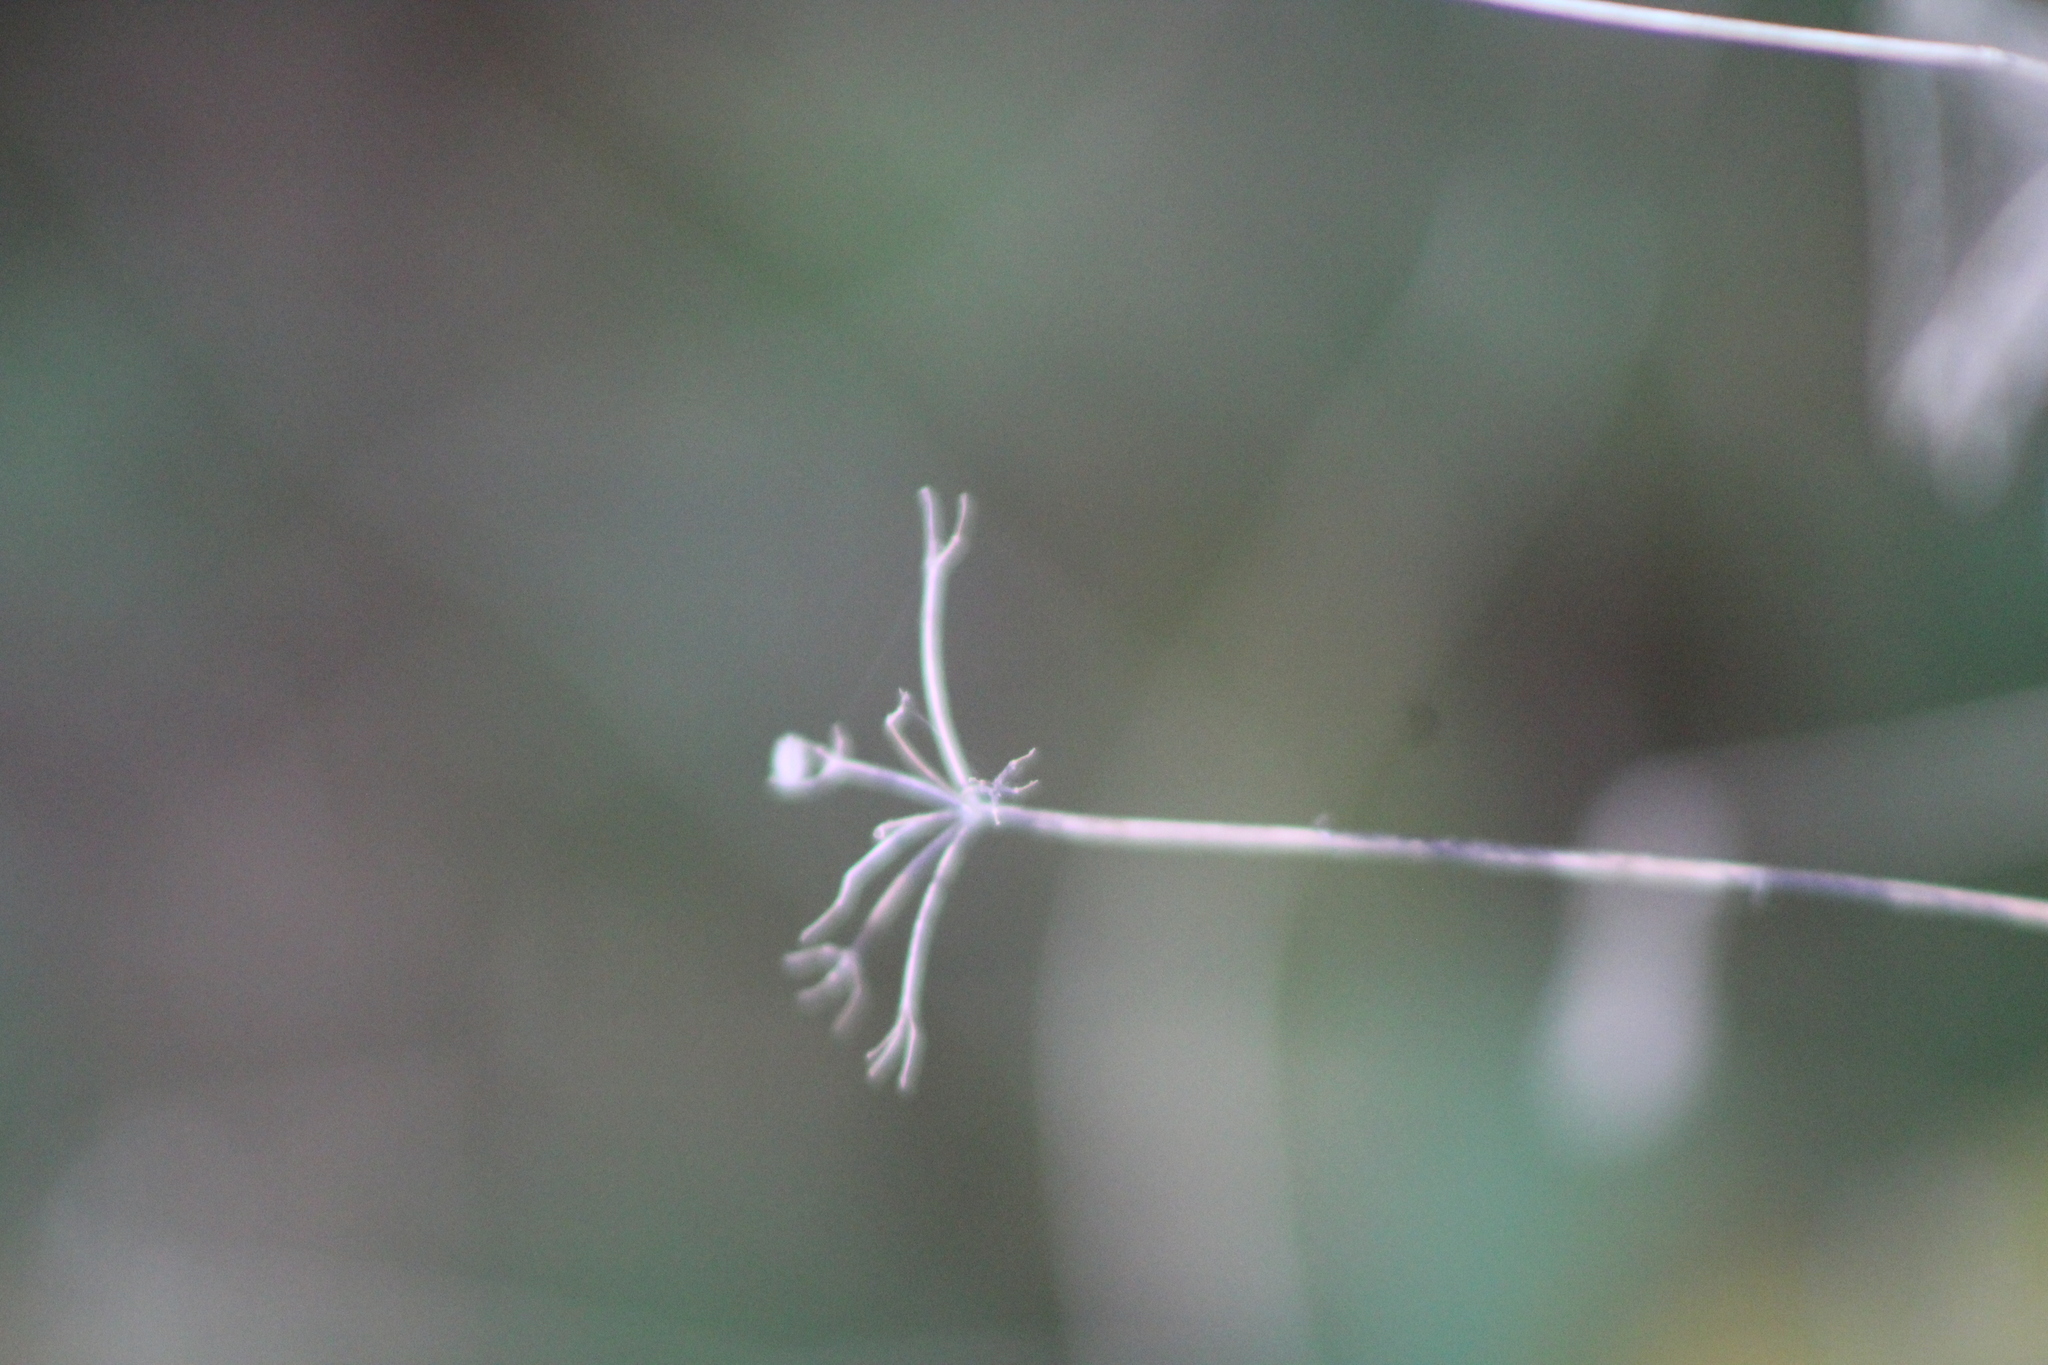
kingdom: Plantae
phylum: Tracheophyta
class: Magnoliopsida
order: Apiales
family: Apiaceae
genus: Torilis
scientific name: Torilis arvensis
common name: Spreading hedge-parsley
